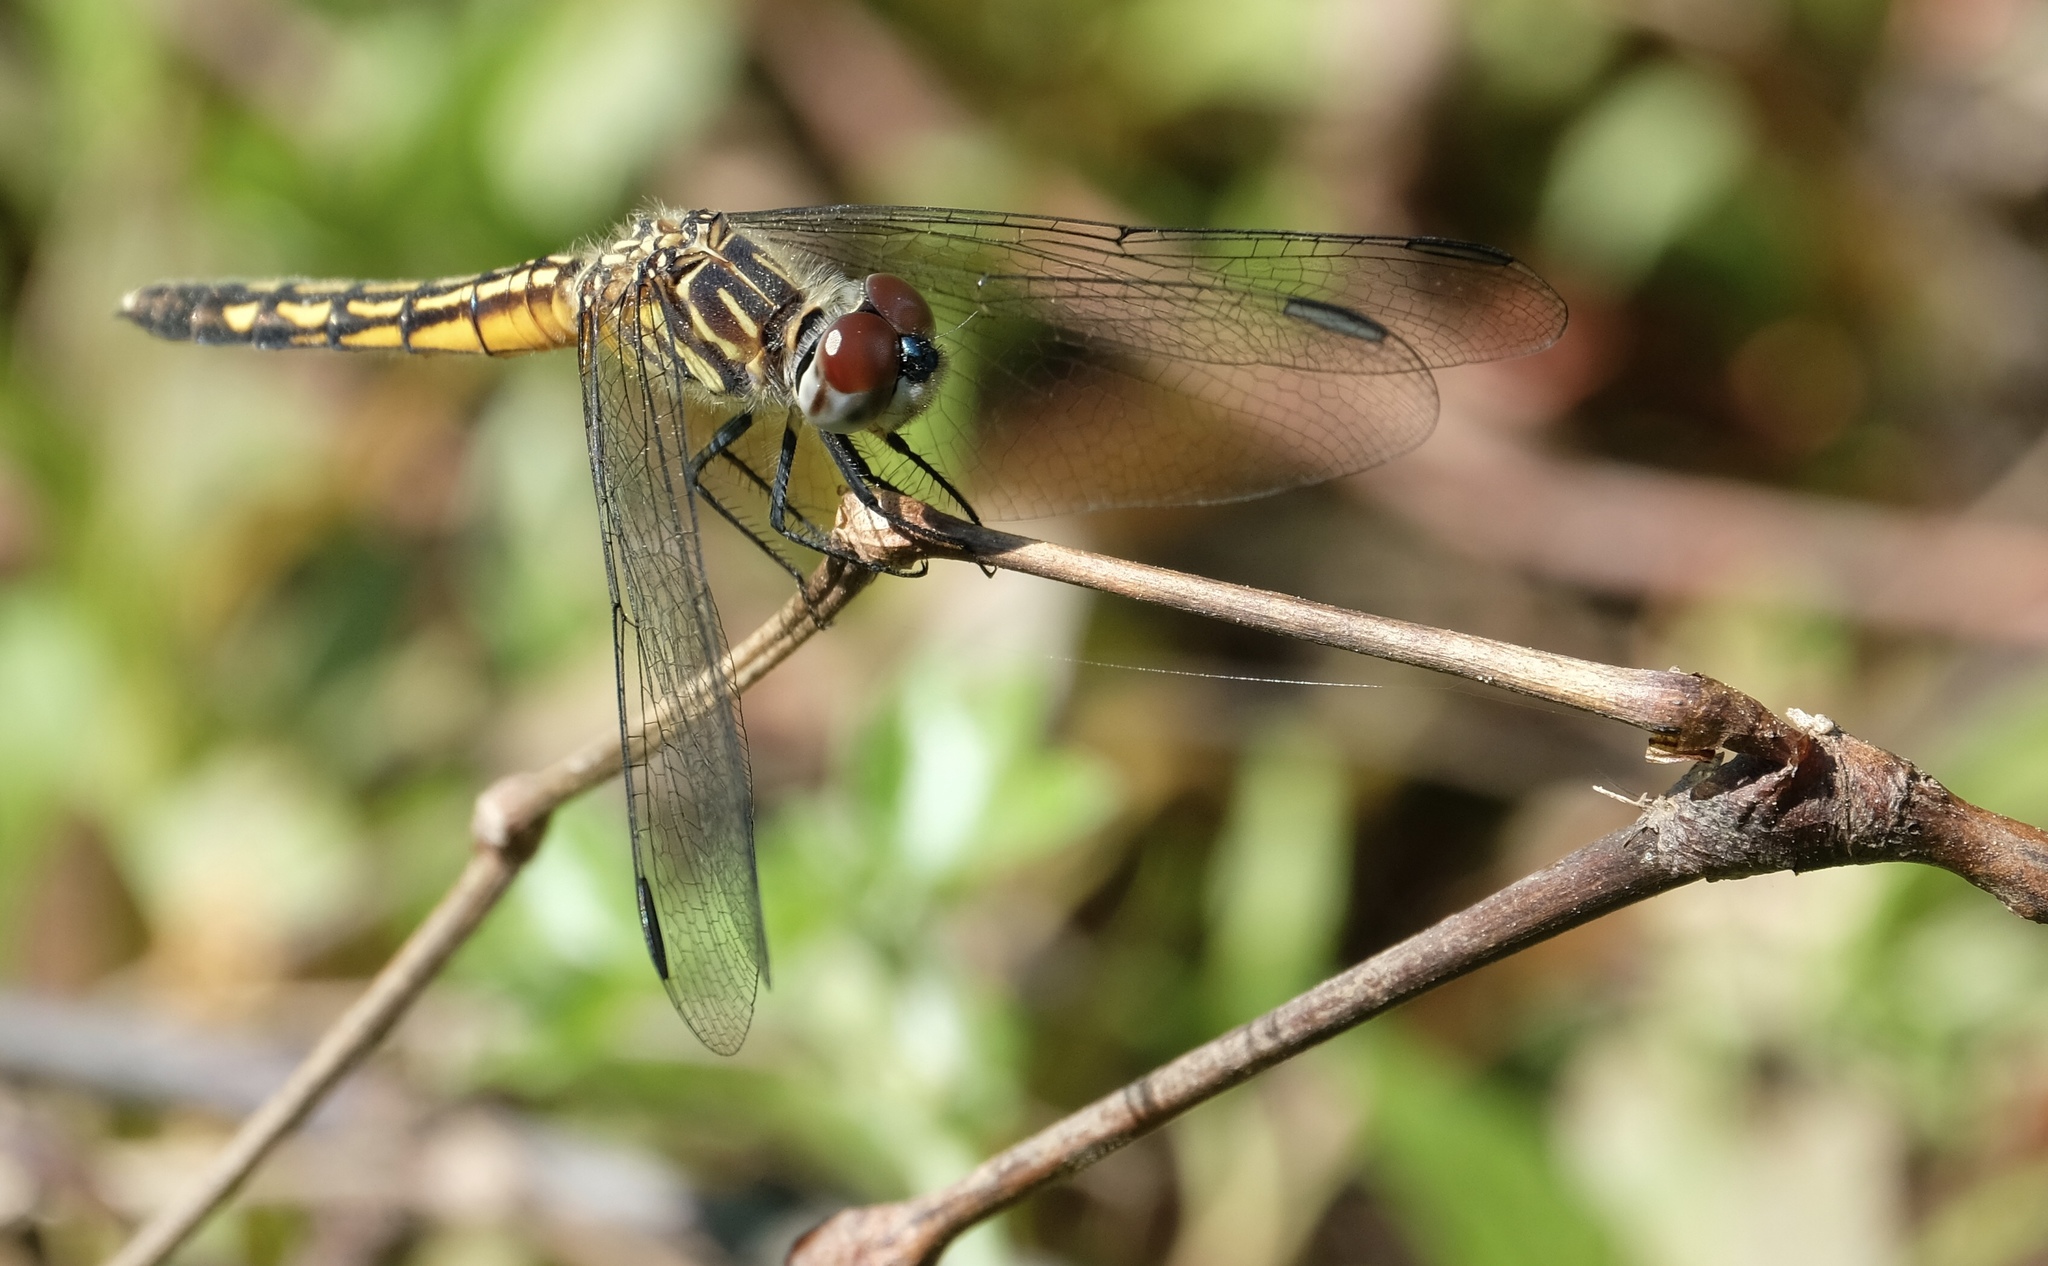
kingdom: Animalia
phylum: Arthropoda
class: Insecta
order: Odonata
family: Libellulidae
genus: Pachydiplax
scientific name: Pachydiplax longipennis
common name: Blue dasher
